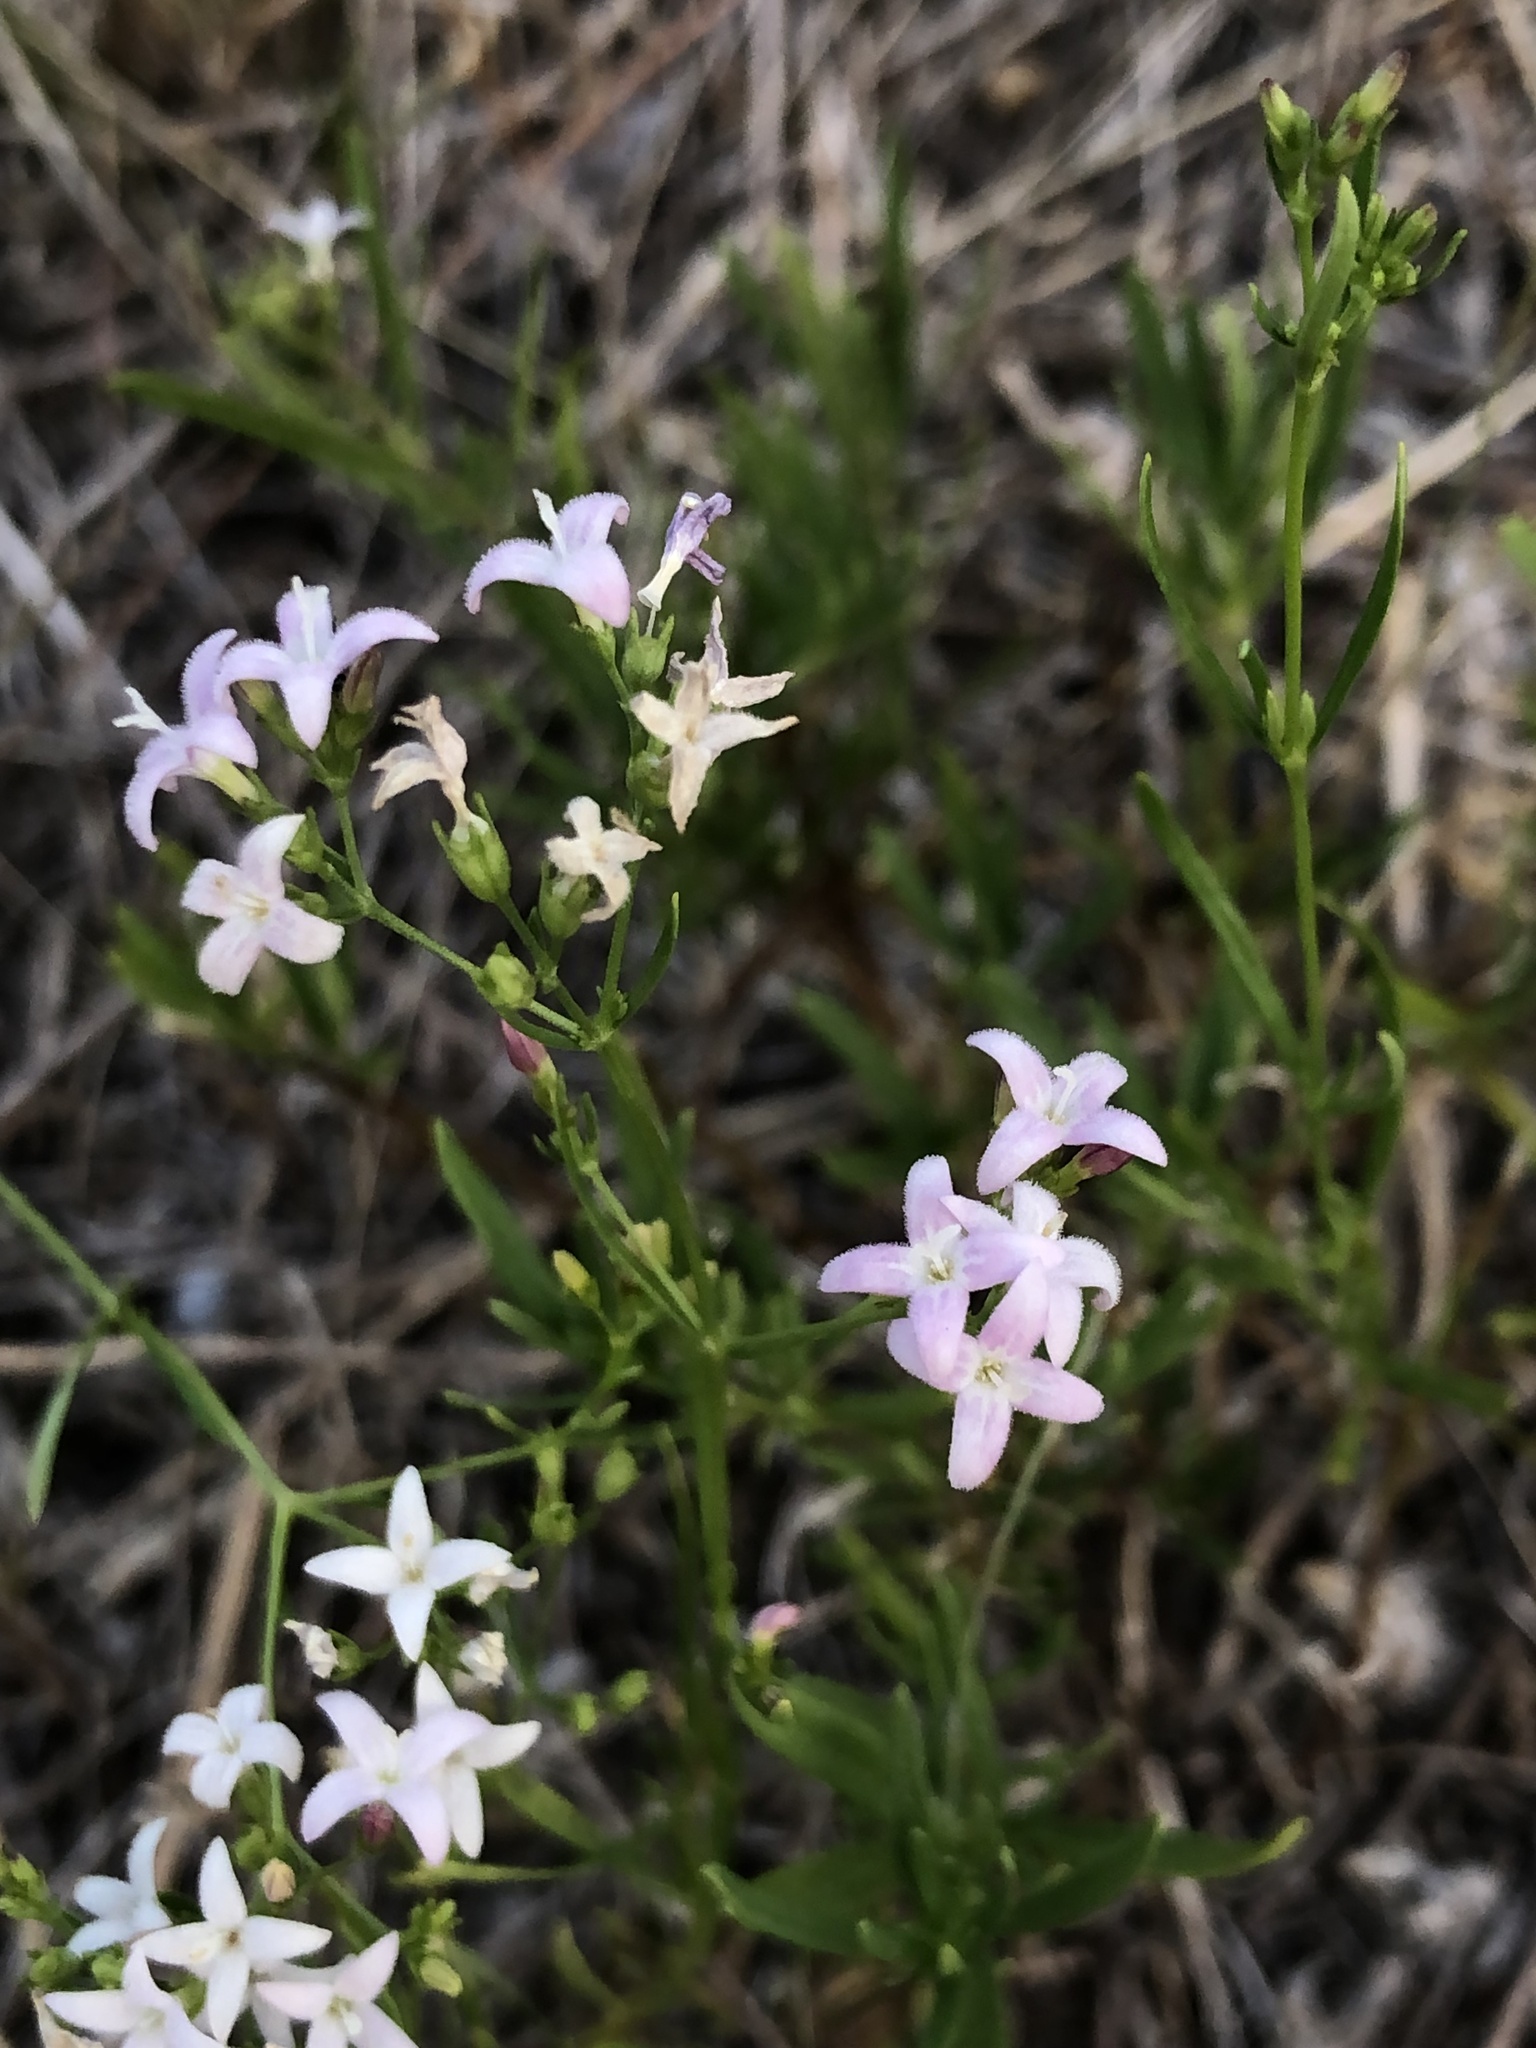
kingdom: Plantae
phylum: Tracheophyta
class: Magnoliopsida
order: Gentianales
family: Rubiaceae
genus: Stenaria
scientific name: Stenaria nigricans
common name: Diamondflowers
